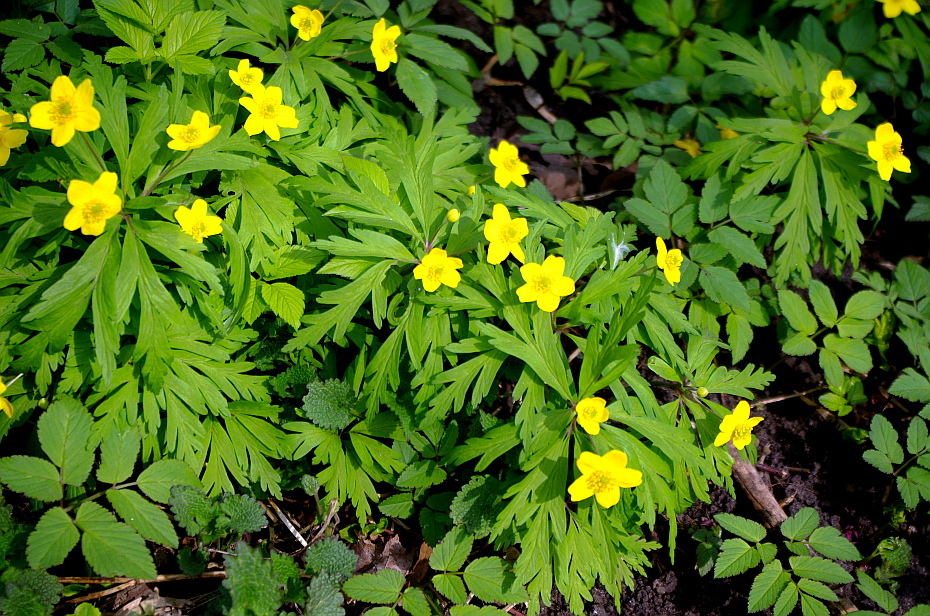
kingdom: Plantae
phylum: Tracheophyta
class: Magnoliopsida
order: Ranunculales
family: Ranunculaceae
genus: Anemone
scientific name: Anemone ranunculoides
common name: Yellow anemone
